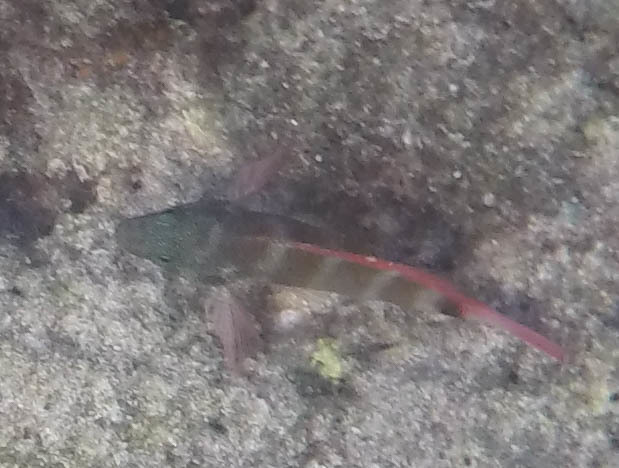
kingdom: Animalia
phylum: Chordata
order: Perciformes
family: Cirrhitidae
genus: Cirrhitops
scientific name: Cirrhitops fasciatus
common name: Redbarred hawkfish
